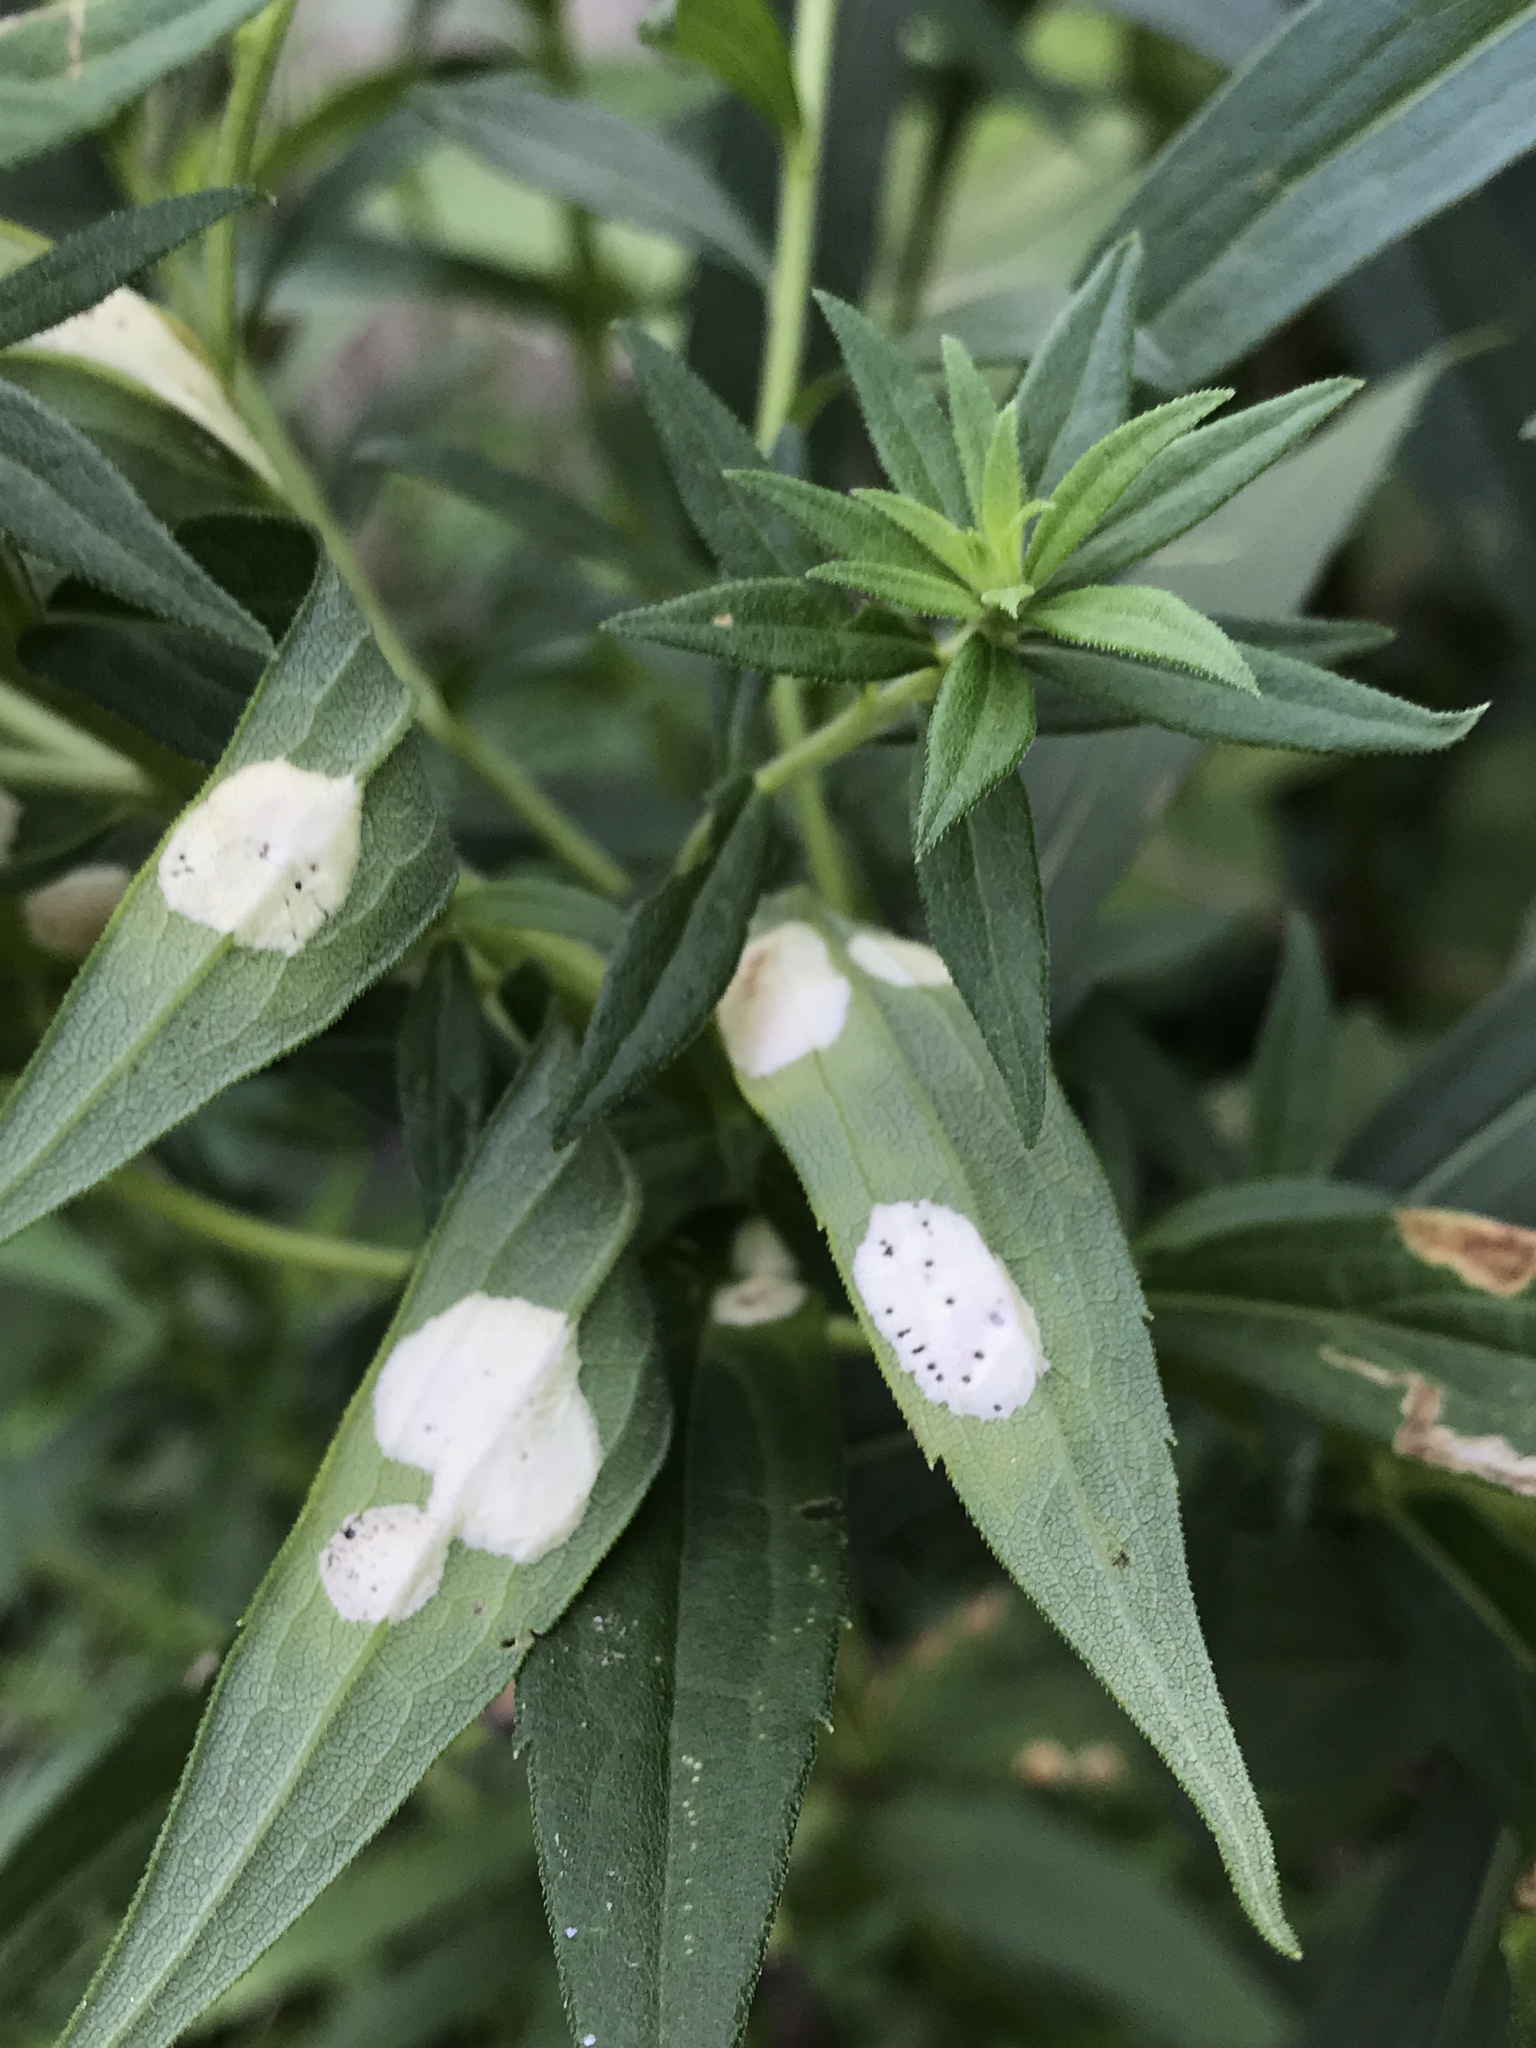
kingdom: Animalia
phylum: Arthropoda
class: Insecta
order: Diptera
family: Cecidomyiidae
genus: Asteromyia
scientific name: Asteromyia carbonifera
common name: Carbonifera goldenrod gall midge
